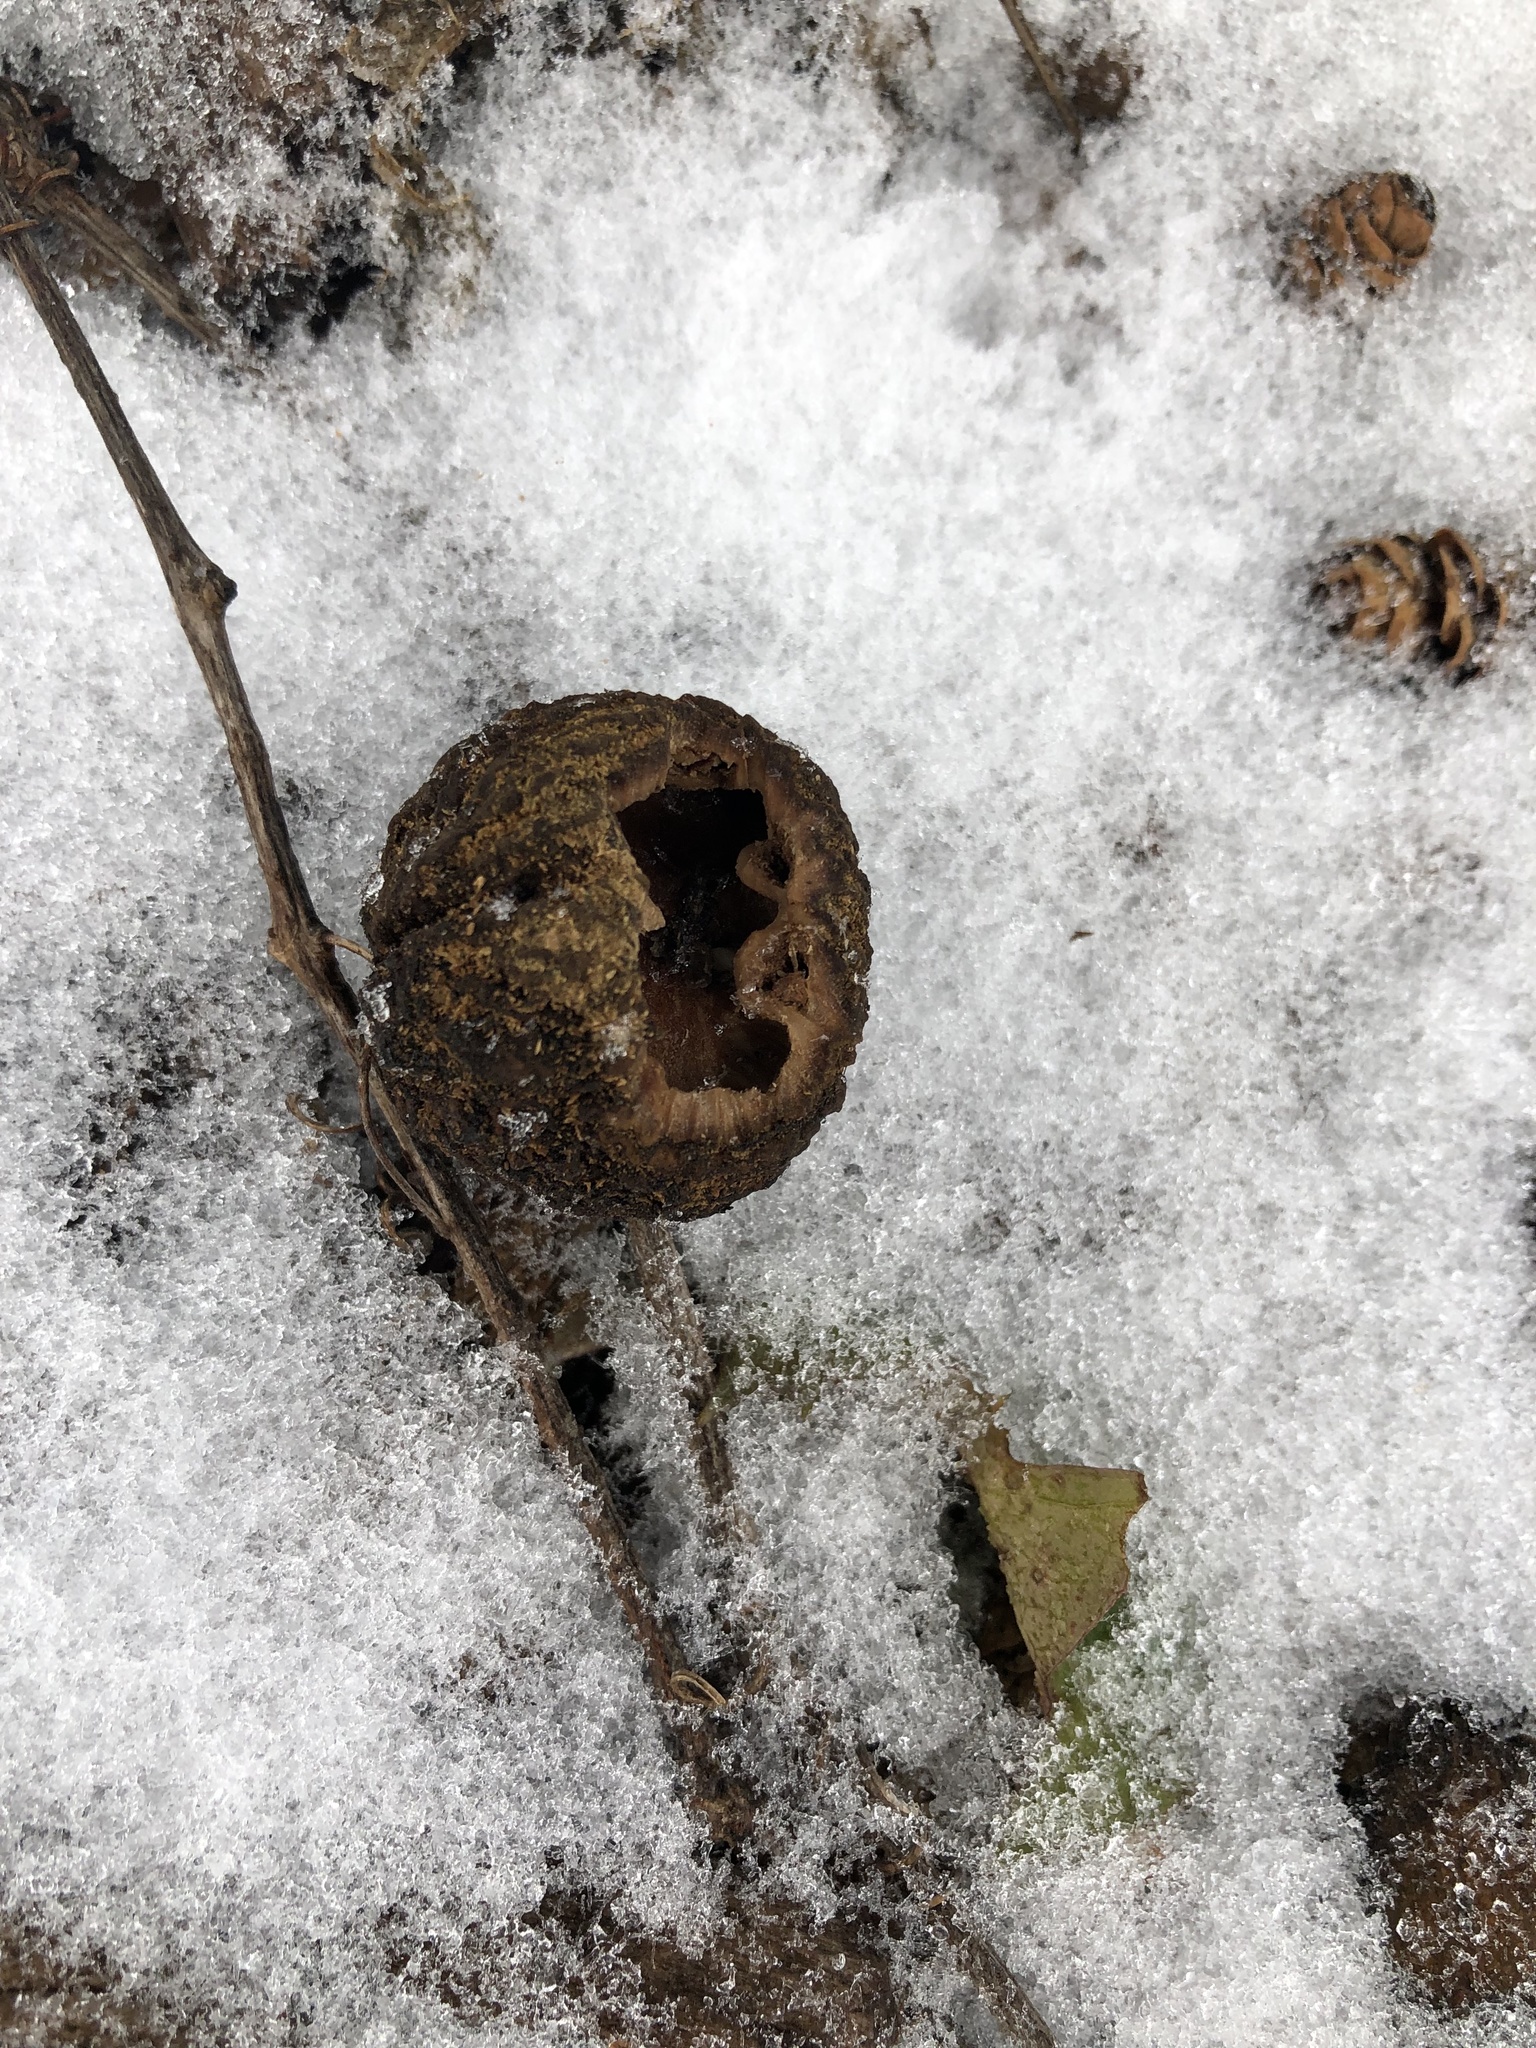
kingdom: Plantae
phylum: Tracheophyta
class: Magnoliopsida
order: Fagales
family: Juglandaceae
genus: Juglans
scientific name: Juglans nigra
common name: Black walnut
